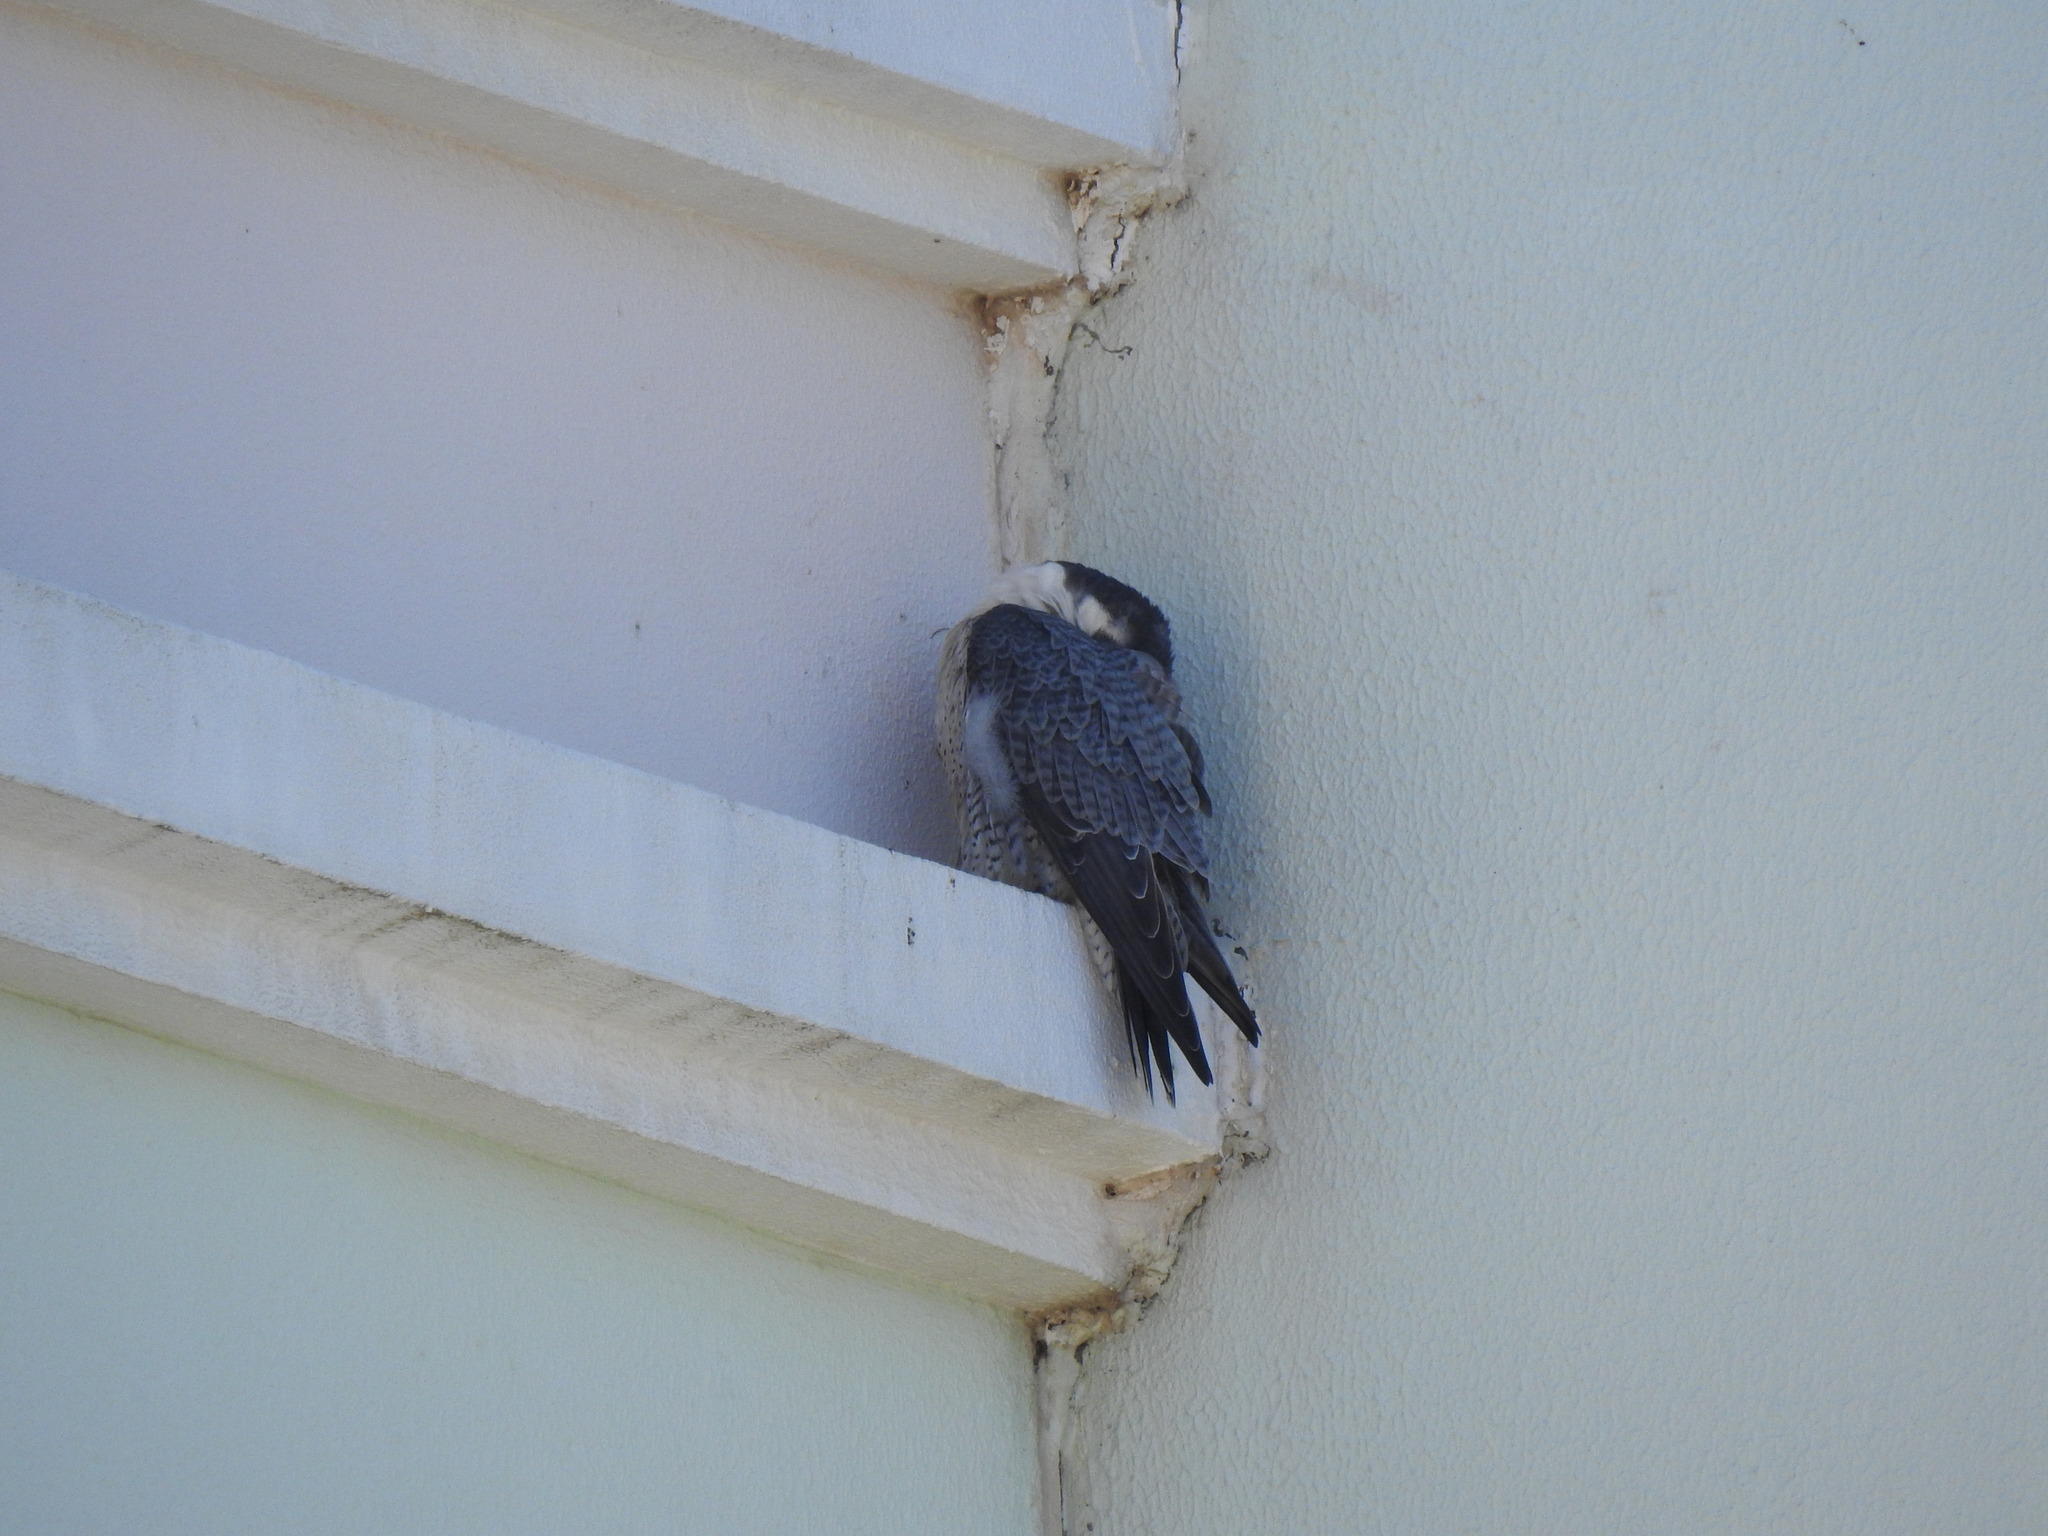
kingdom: Animalia
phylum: Chordata
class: Aves
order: Falconiformes
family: Falconidae
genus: Falco
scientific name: Falco peregrinus
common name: Peregrine falcon
